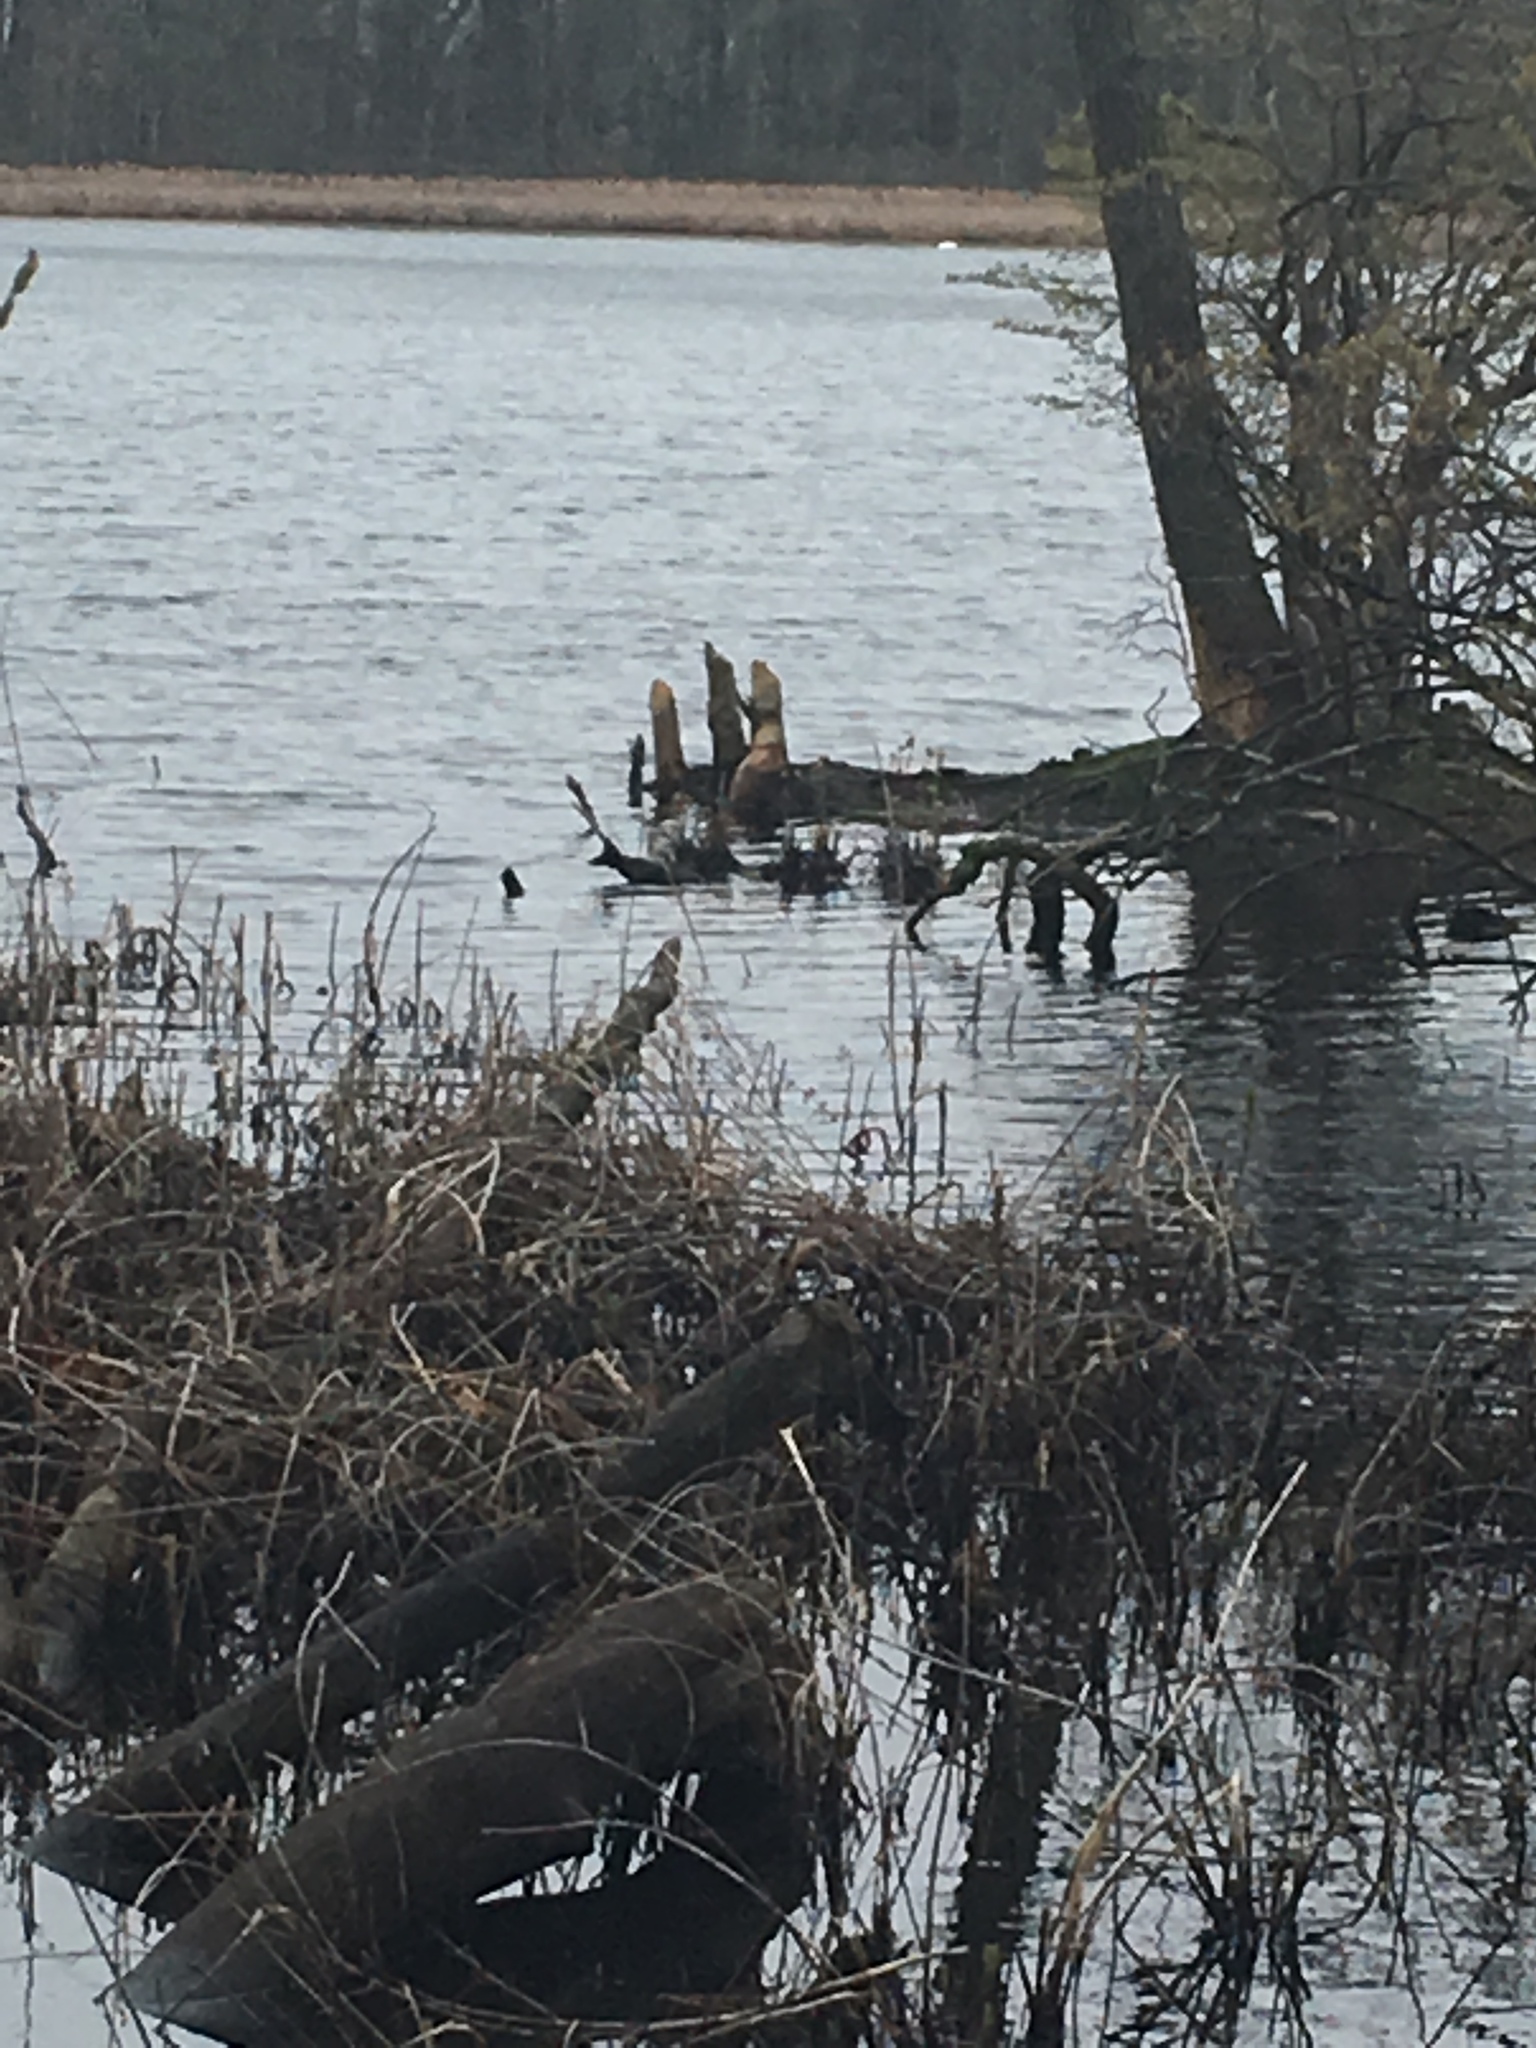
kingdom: Animalia
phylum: Chordata
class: Mammalia
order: Rodentia
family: Castoridae
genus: Castor
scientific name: Castor canadensis
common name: American beaver
